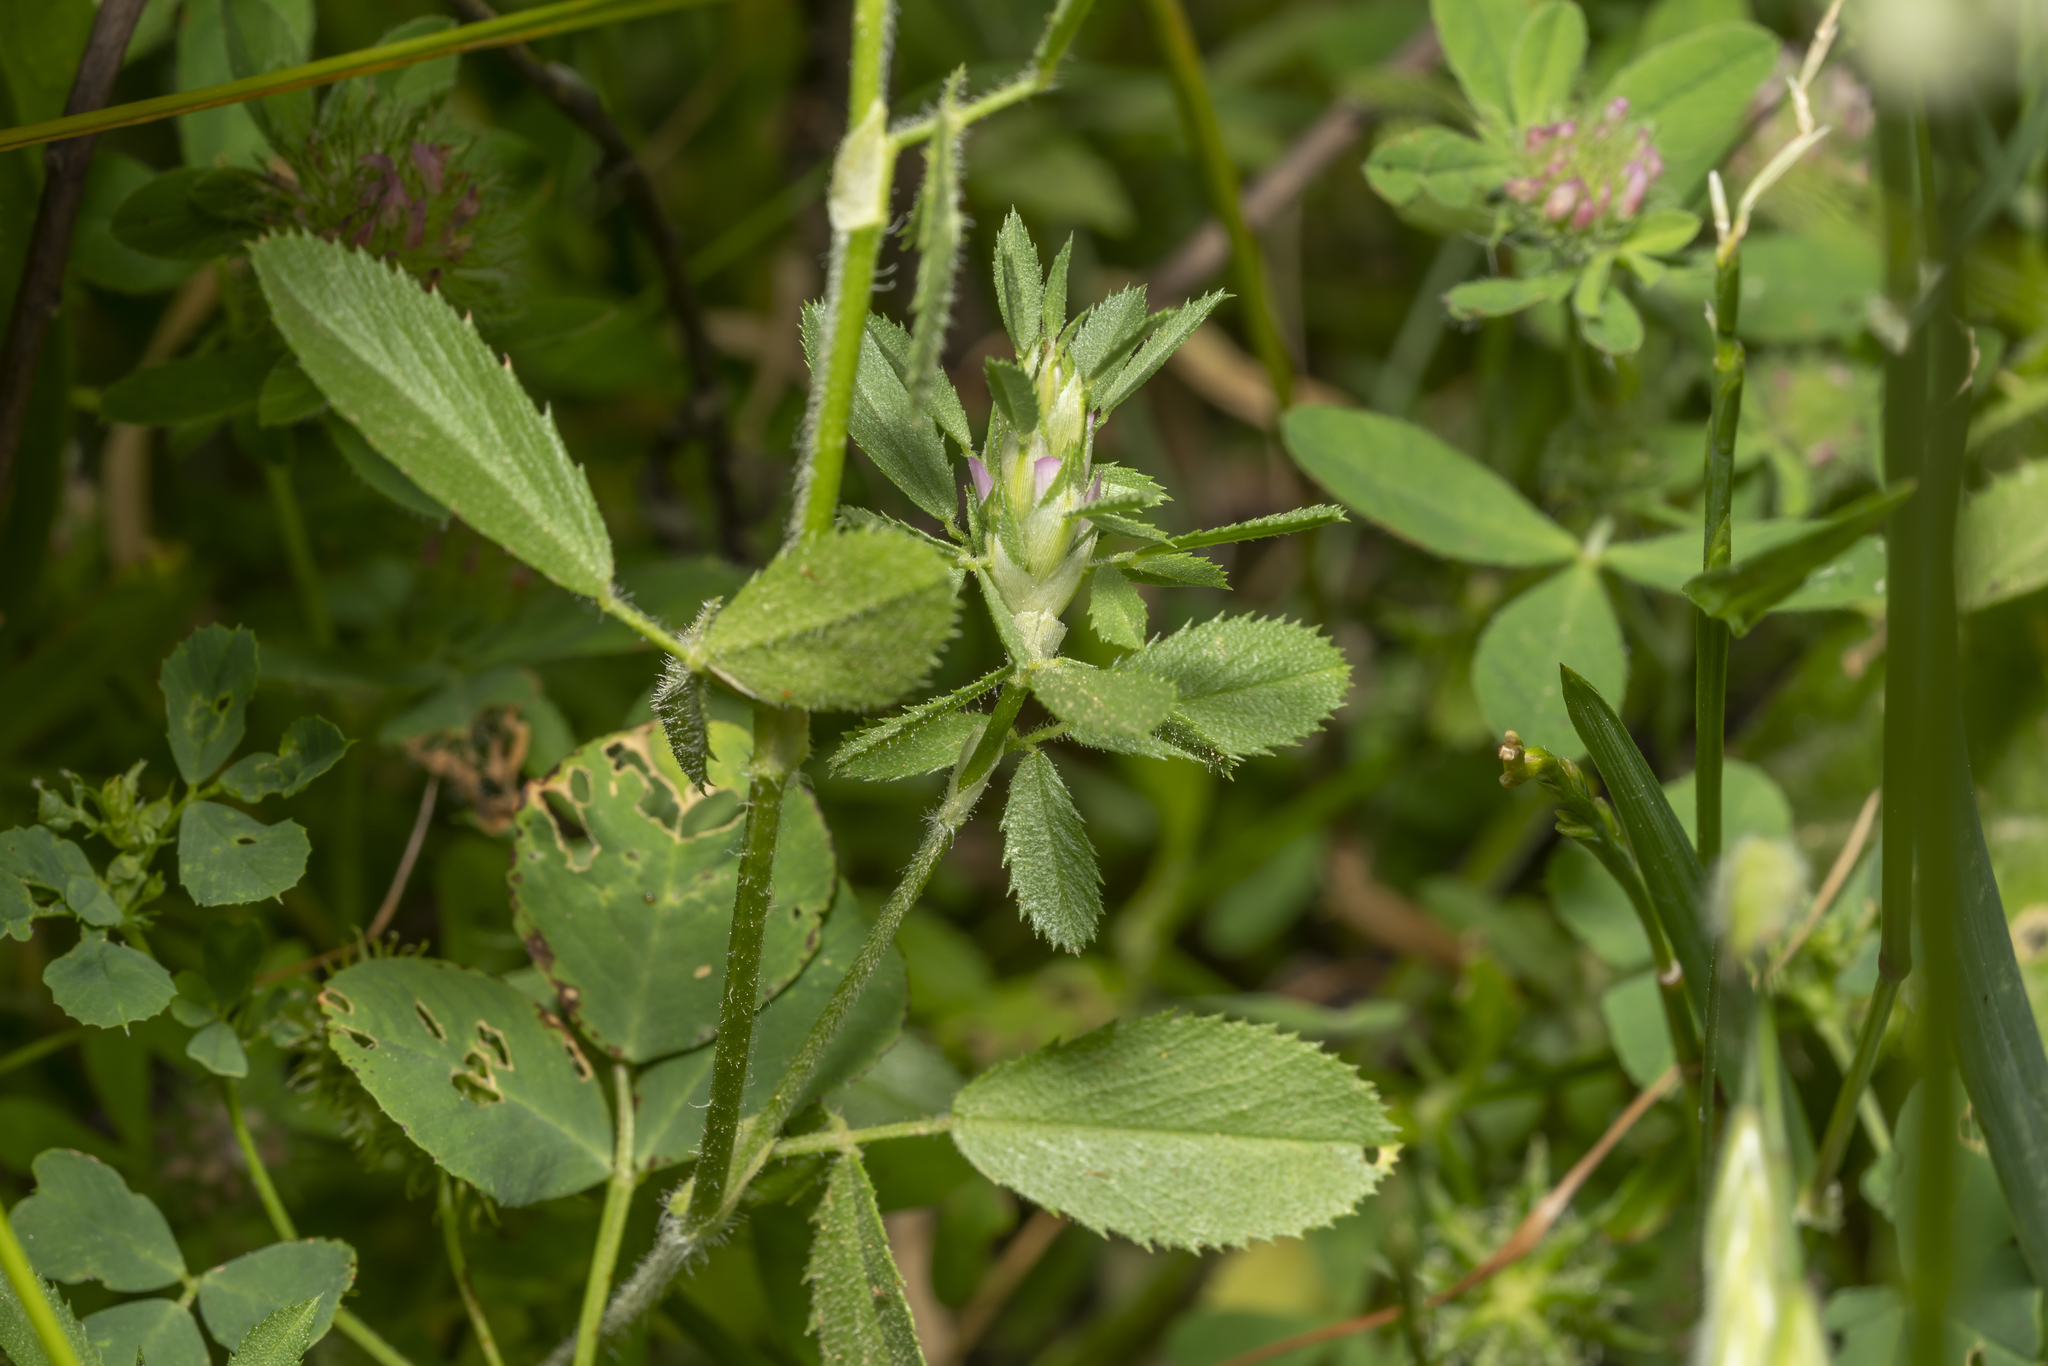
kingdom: Plantae
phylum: Tracheophyta
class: Magnoliopsida
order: Fabales
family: Fabaceae
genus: Ononis
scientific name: Ononis mitissima
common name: Mediterranean restharrow
